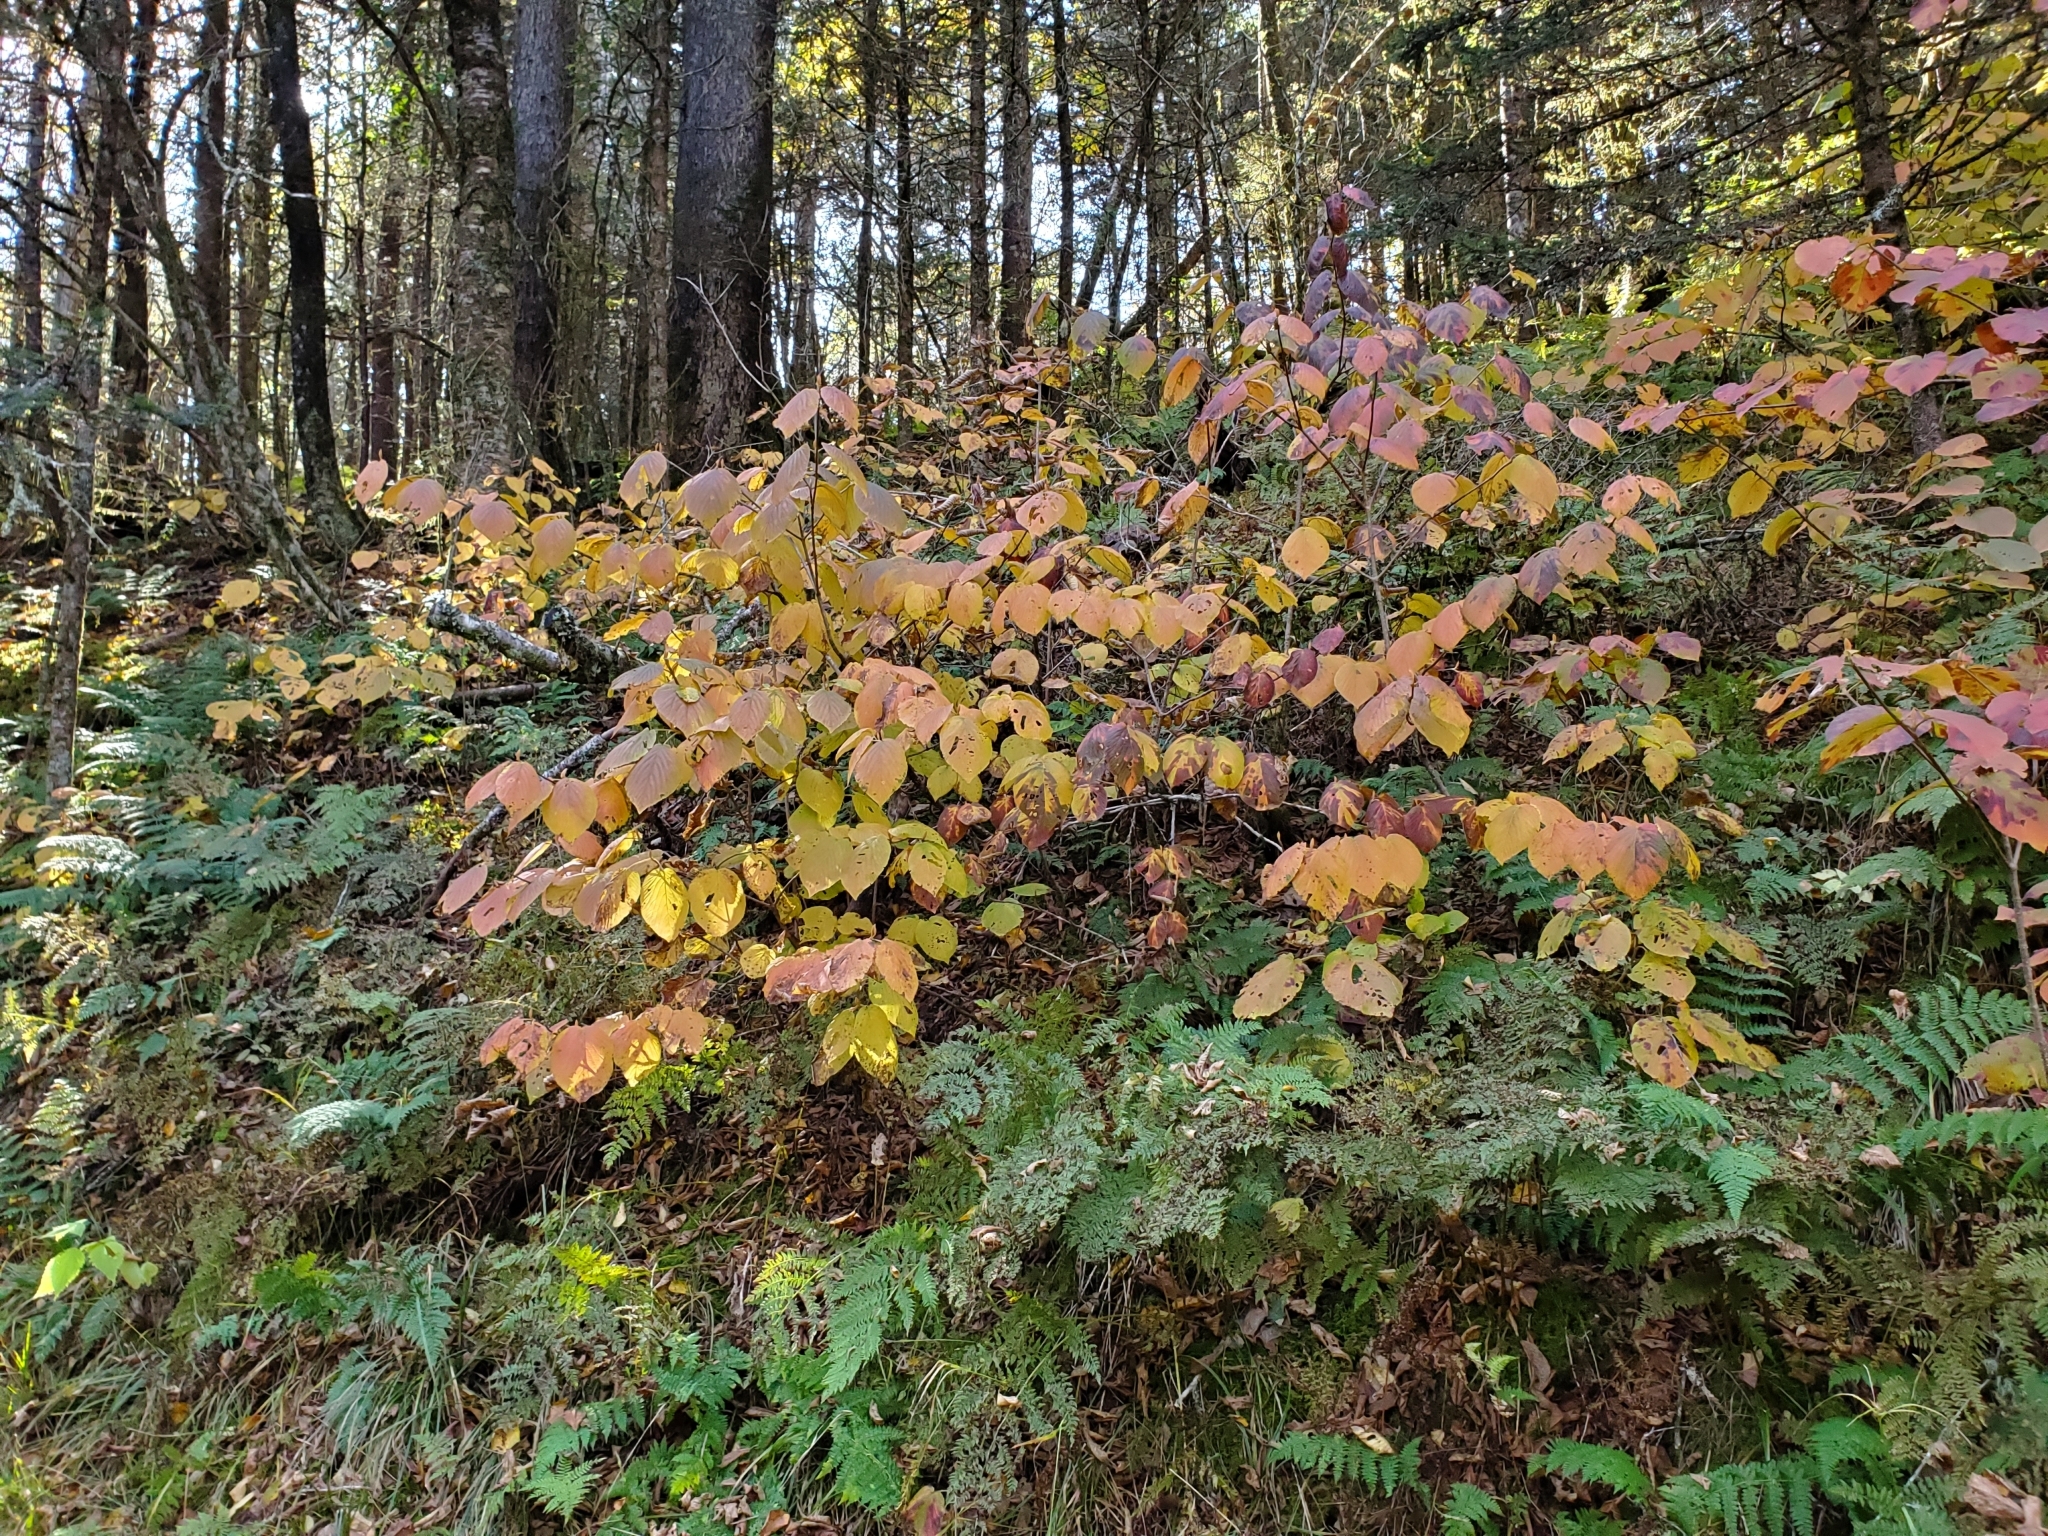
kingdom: Plantae
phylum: Tracheophyta
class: Magnoliopsida
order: Dipsacales
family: Viburnaceae
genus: Viburnum
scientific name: Viburnum lantanoides
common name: Hobblebush
